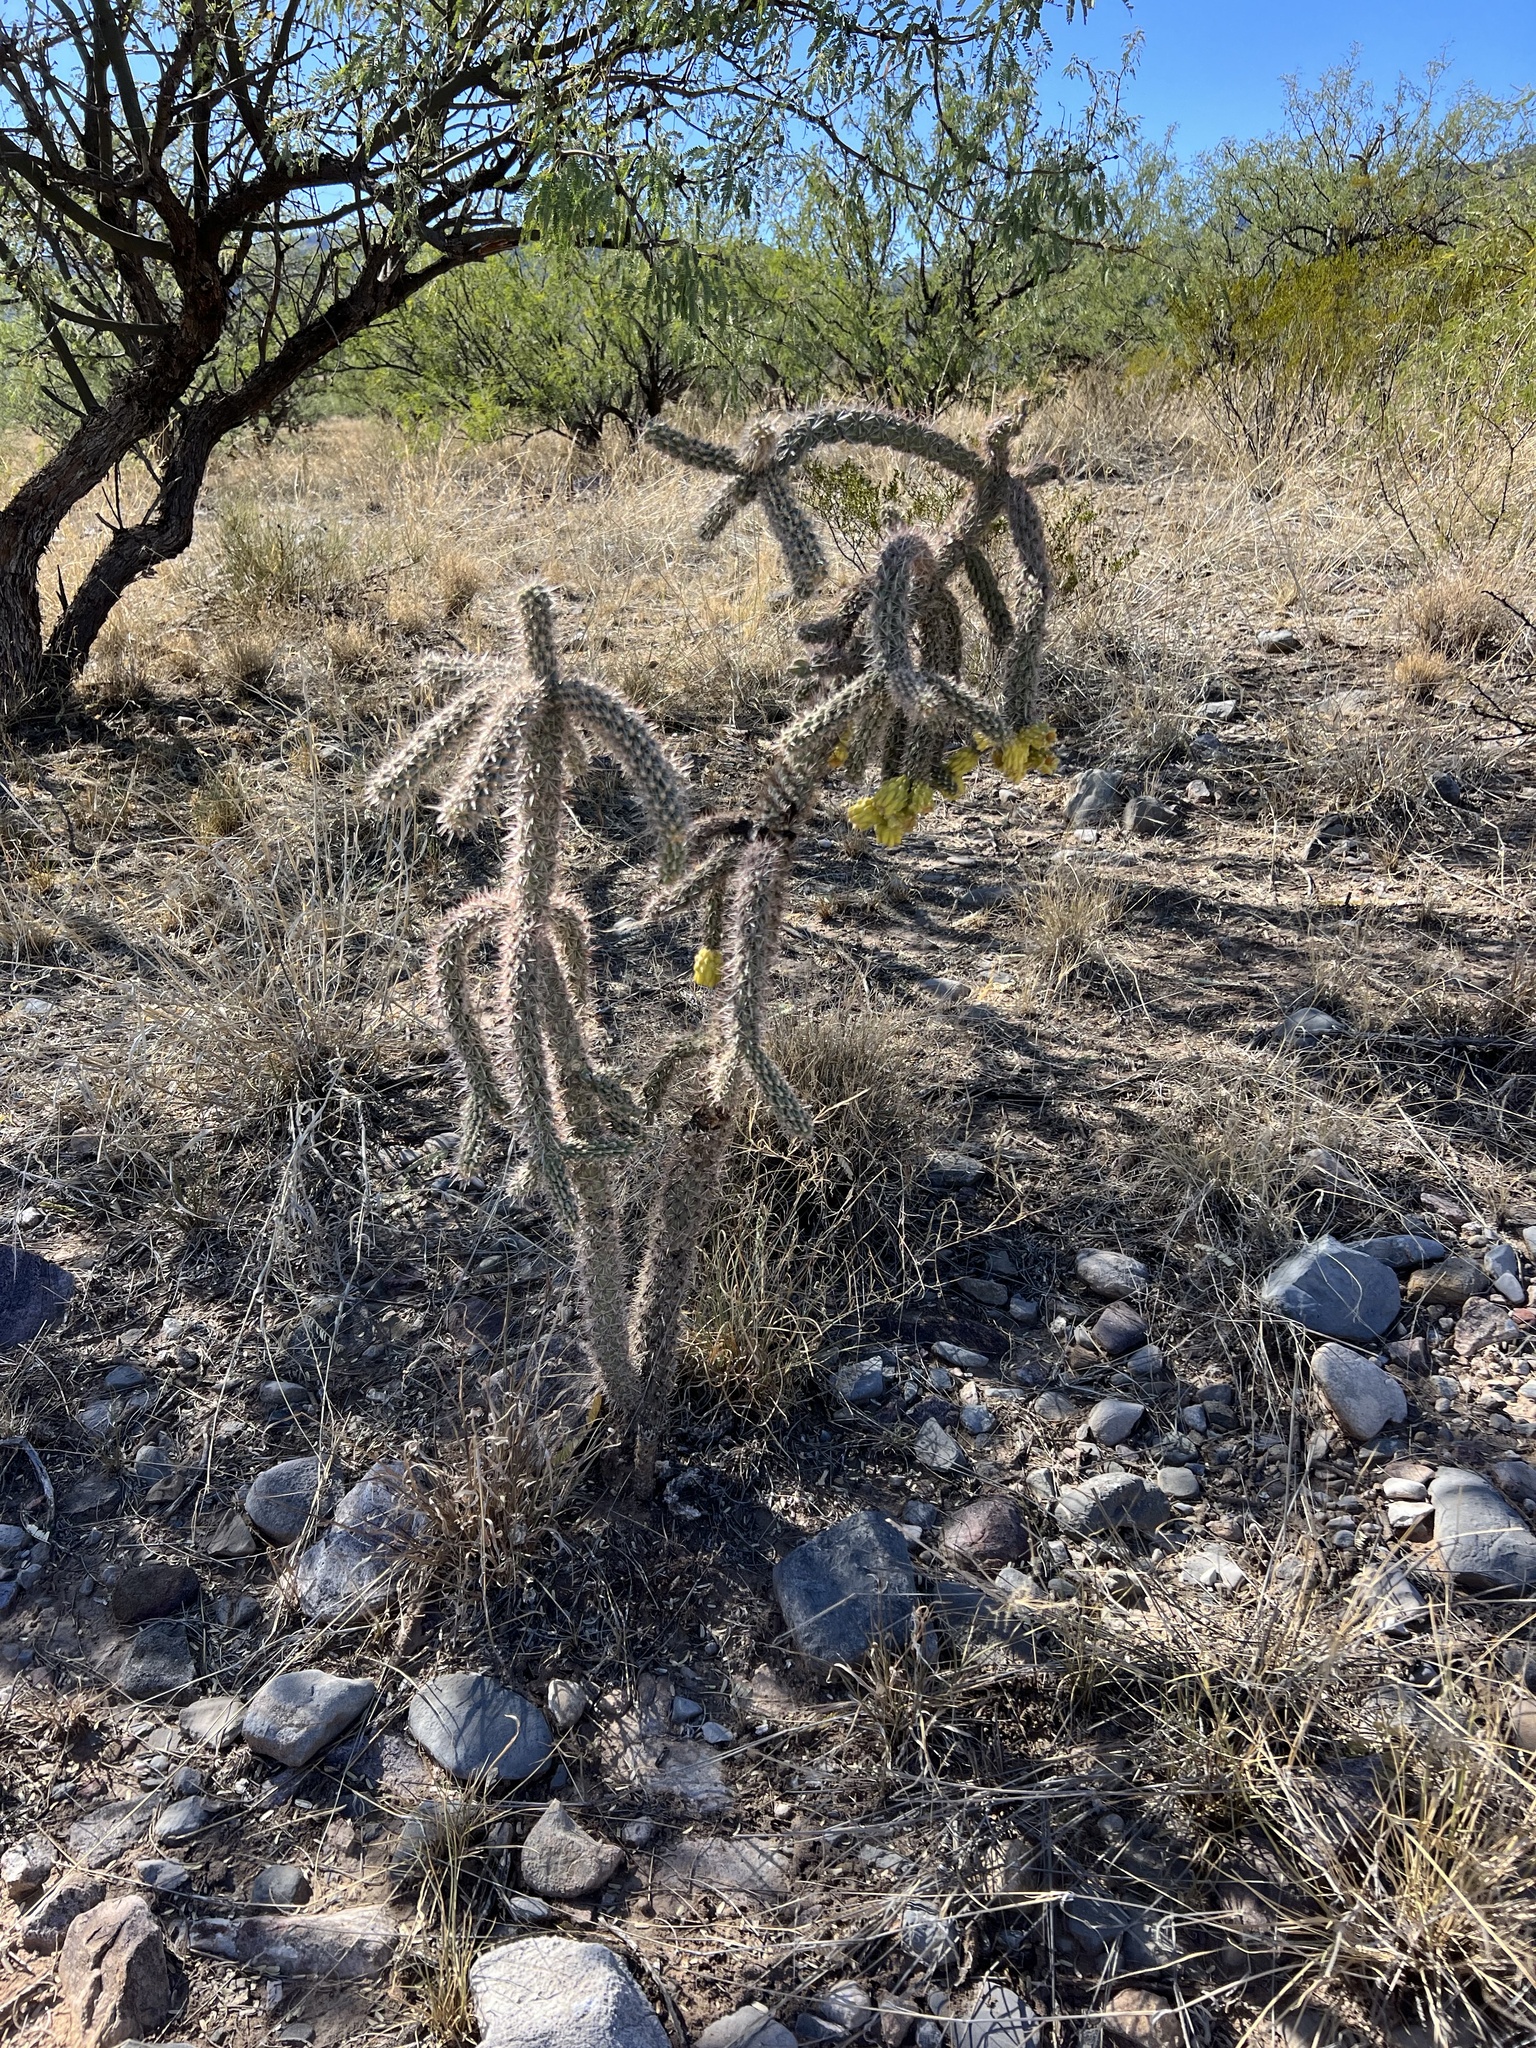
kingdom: Plantae
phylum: Tracheophyta
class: Magnoliopsida
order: Caryophyllales
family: Cactaceae
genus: Cylindropuntia
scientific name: Cylindropuntia imbricata
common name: Candelabrum cactus
